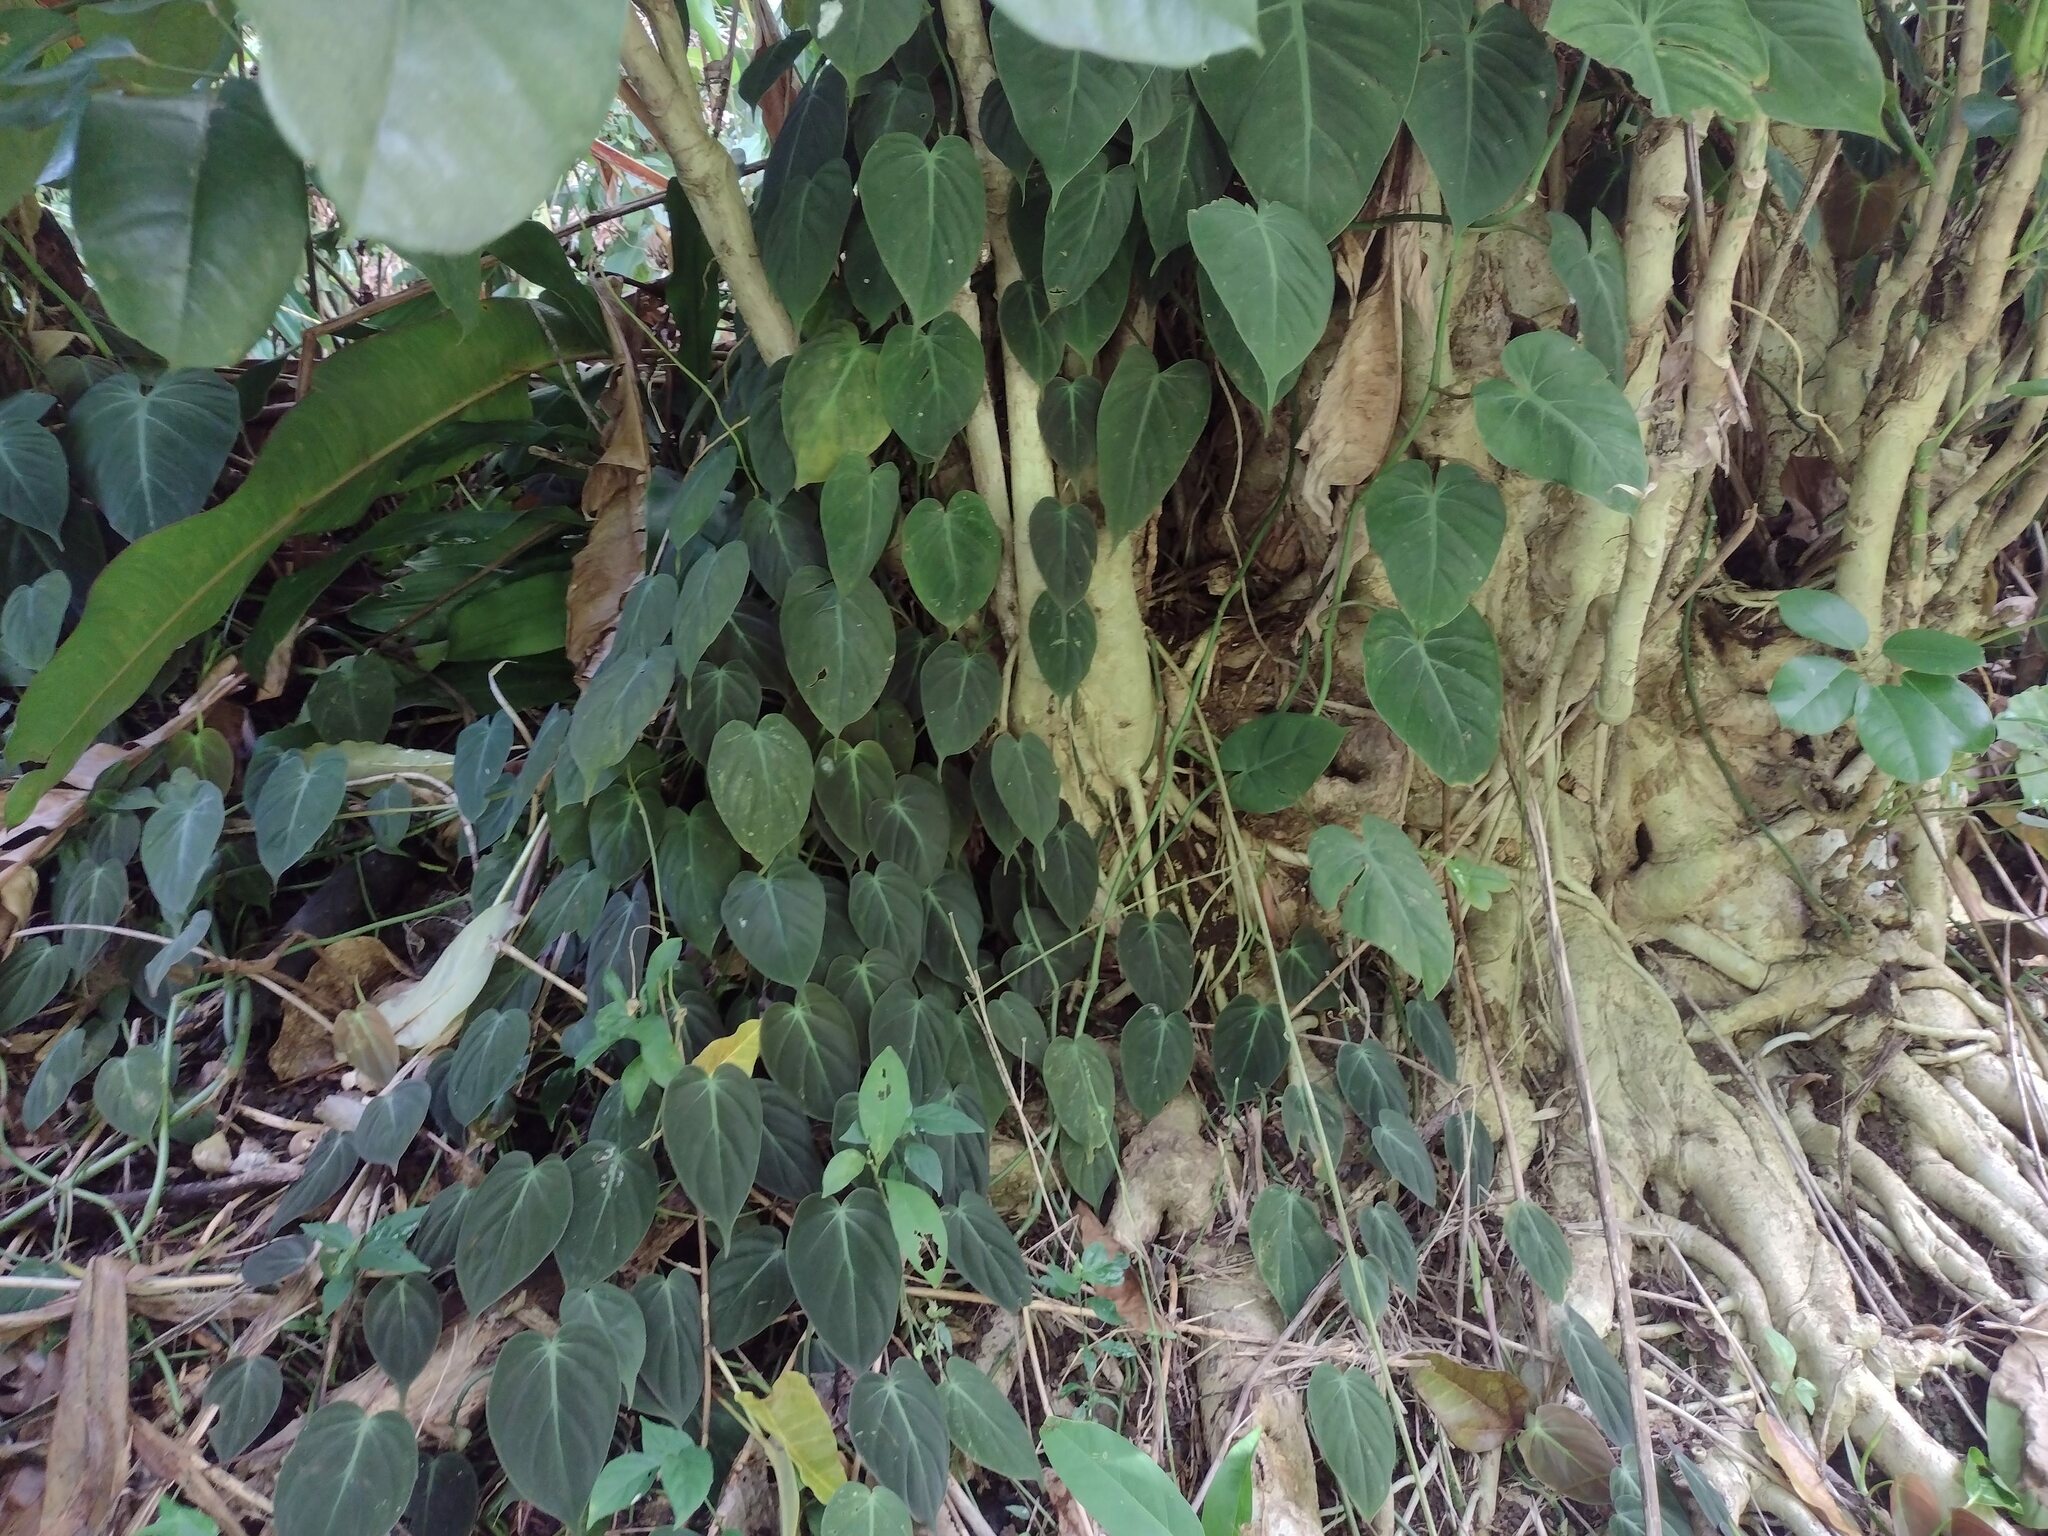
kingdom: Plantae
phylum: Tracheophyta
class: Liliopsida
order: Alismatales
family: Araceae
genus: Philodendron
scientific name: Philodendron hederaceum
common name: Vilevine
